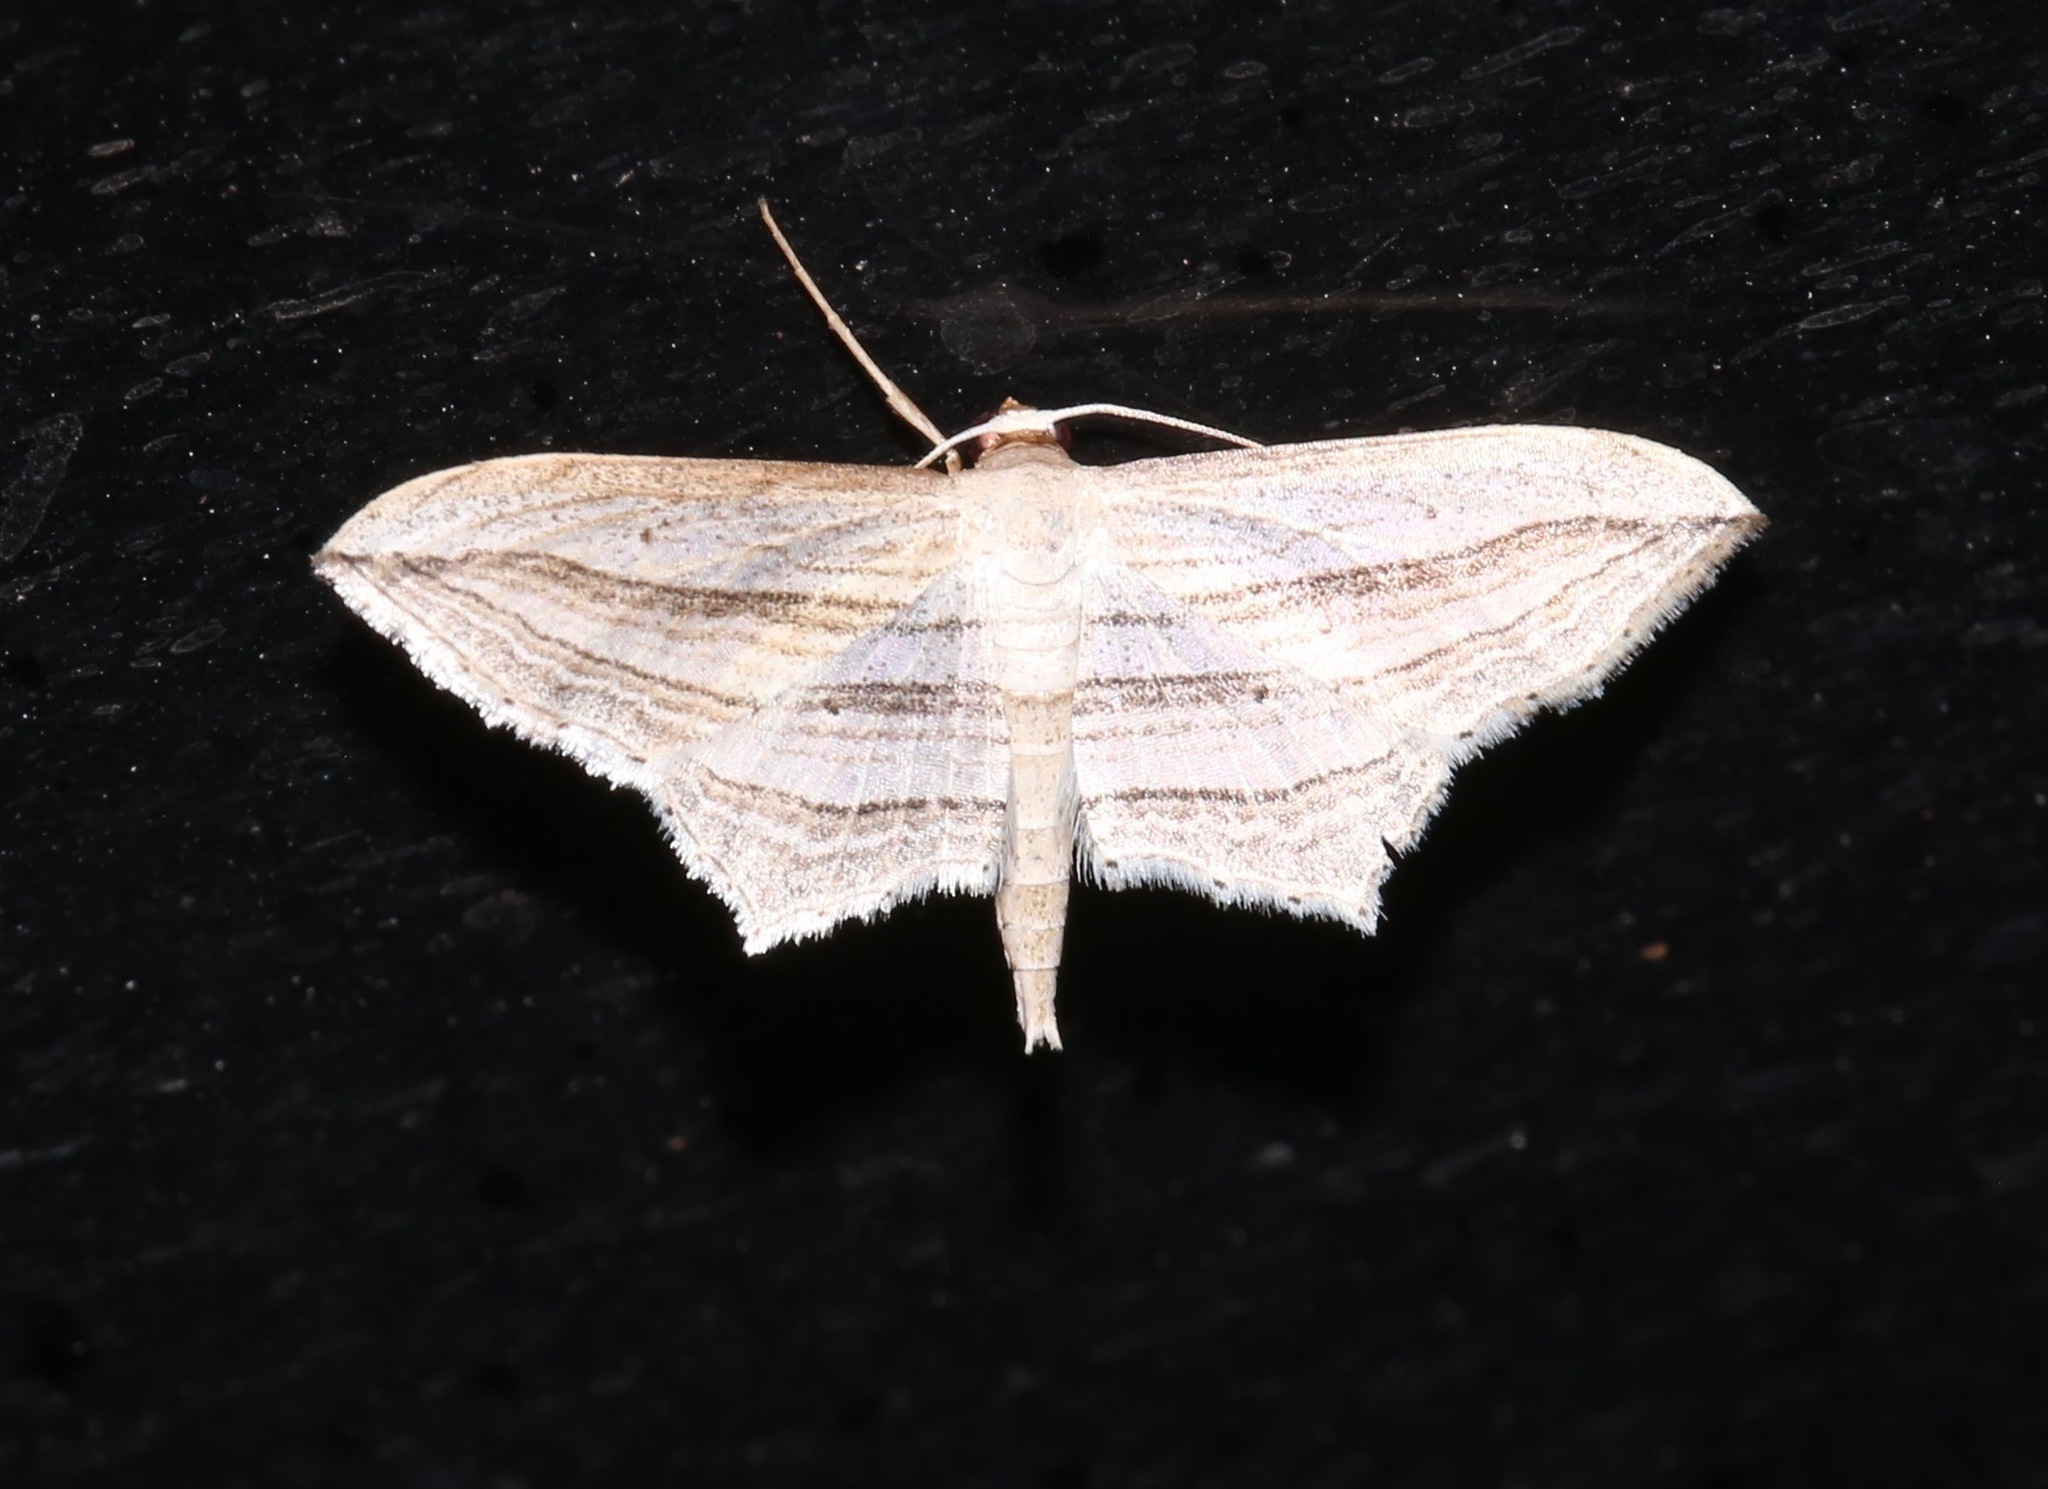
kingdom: Animalia
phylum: Arthropoda
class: Insecta
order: Lepidoptera
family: Geometridae
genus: Arcobara
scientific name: Arcobara multilineata
